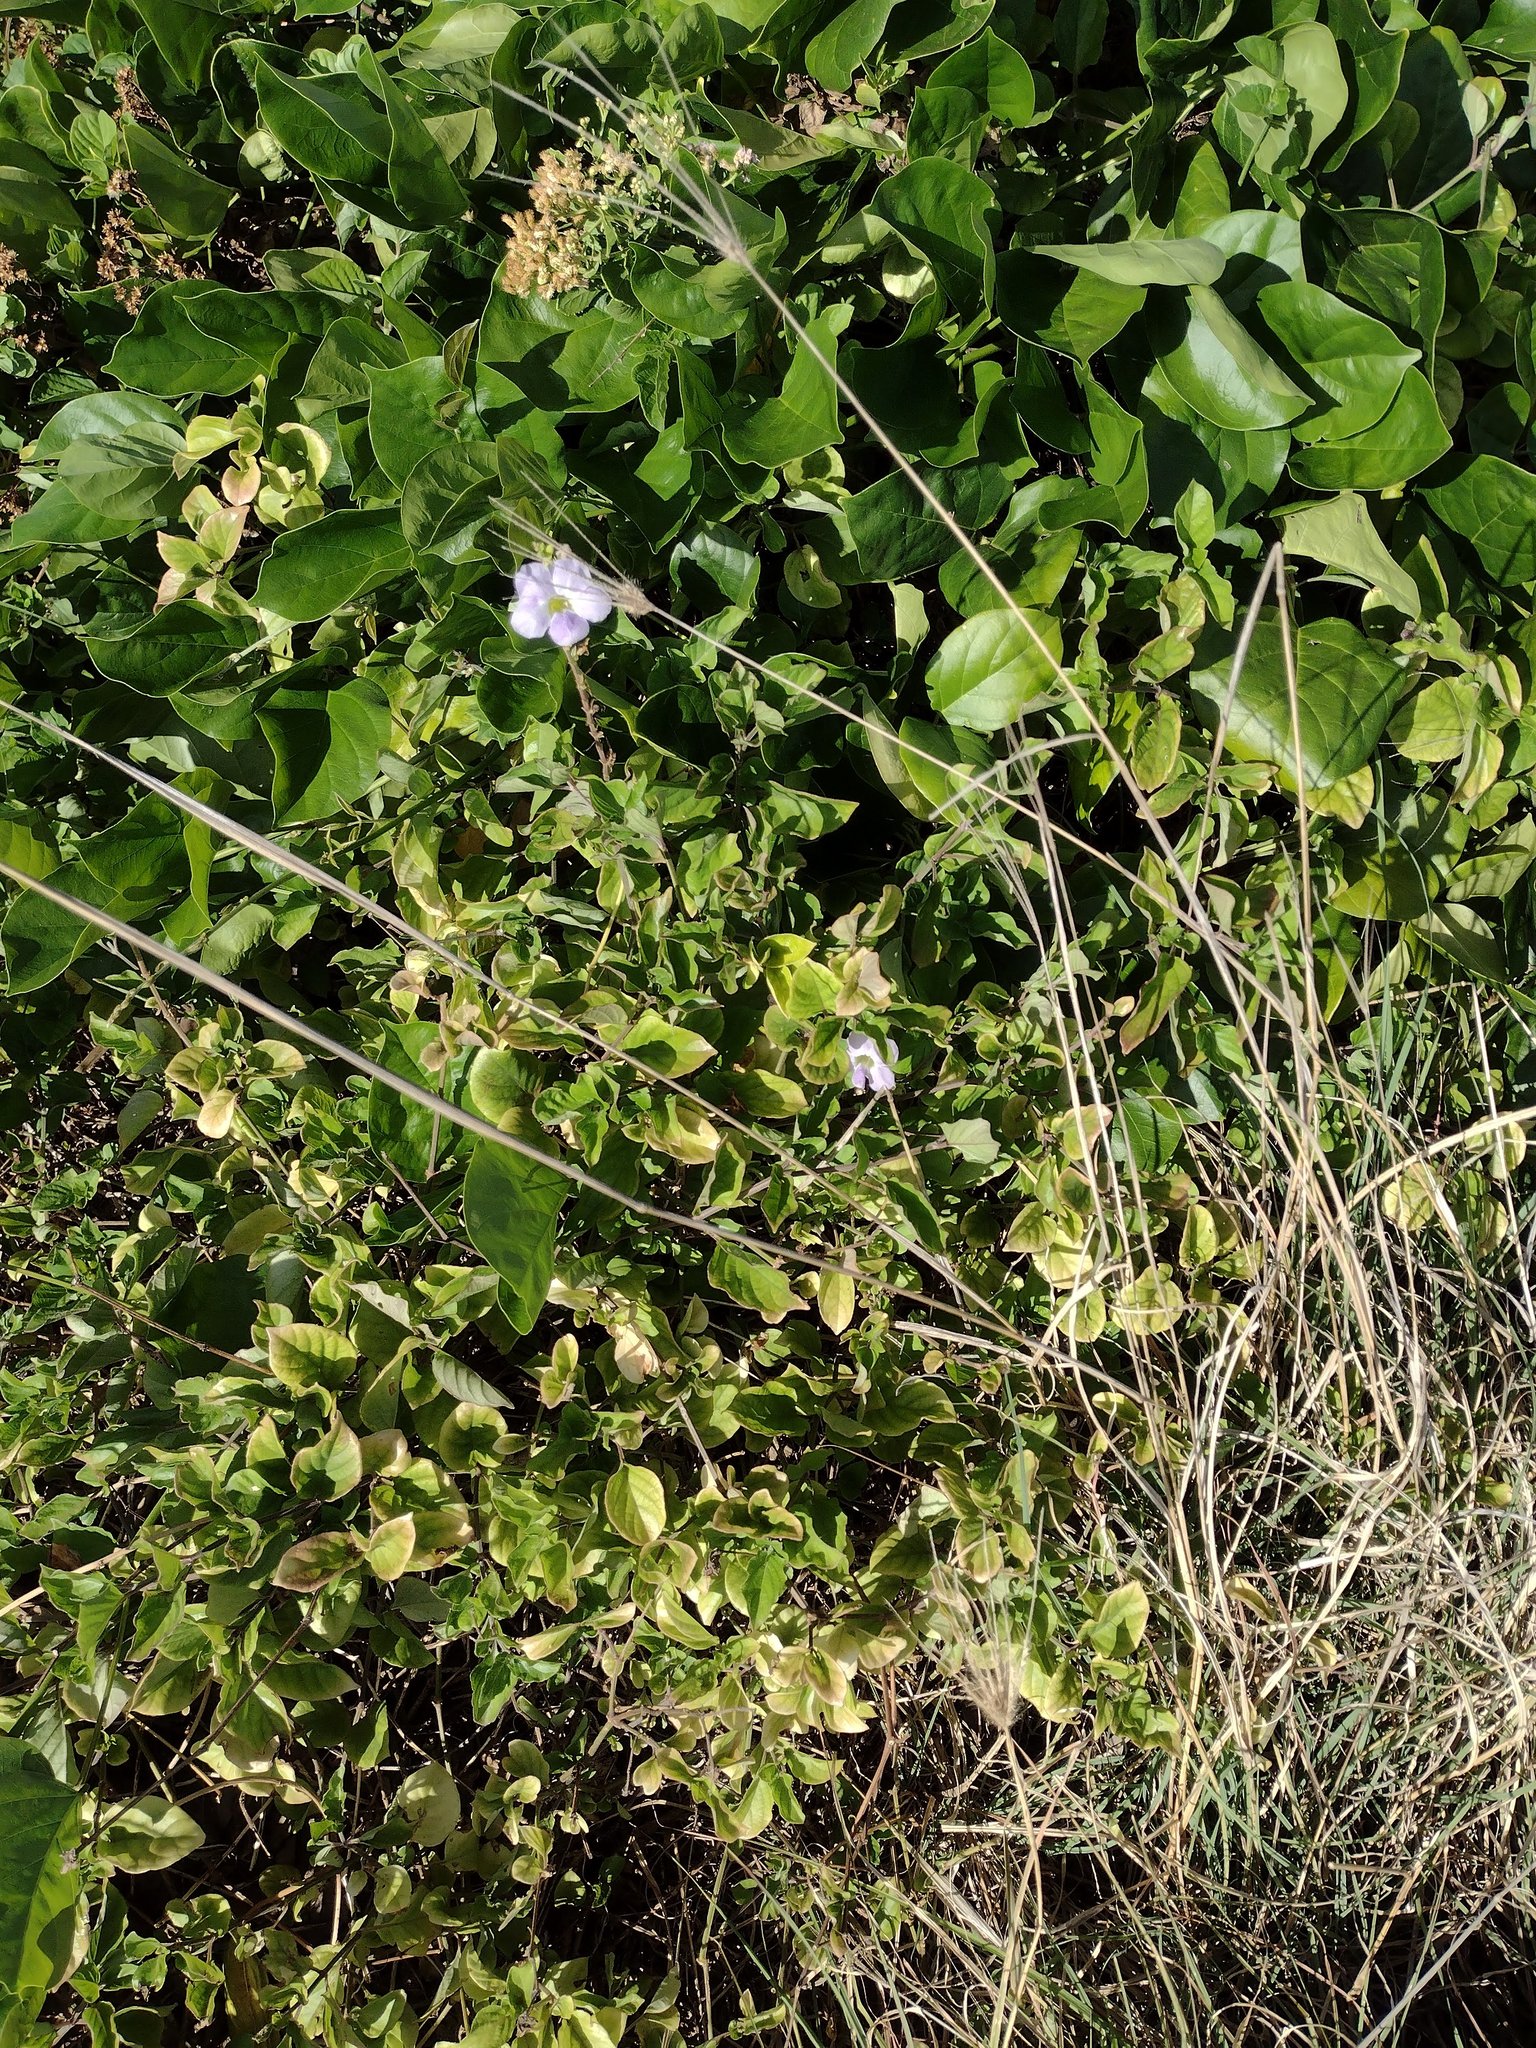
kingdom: Plantae
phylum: Tracheophyta
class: Magnoliopsida
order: Fabales
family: Fabaceae
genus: Canavalia
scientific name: Canavalia cathartica
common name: Maunaloa
